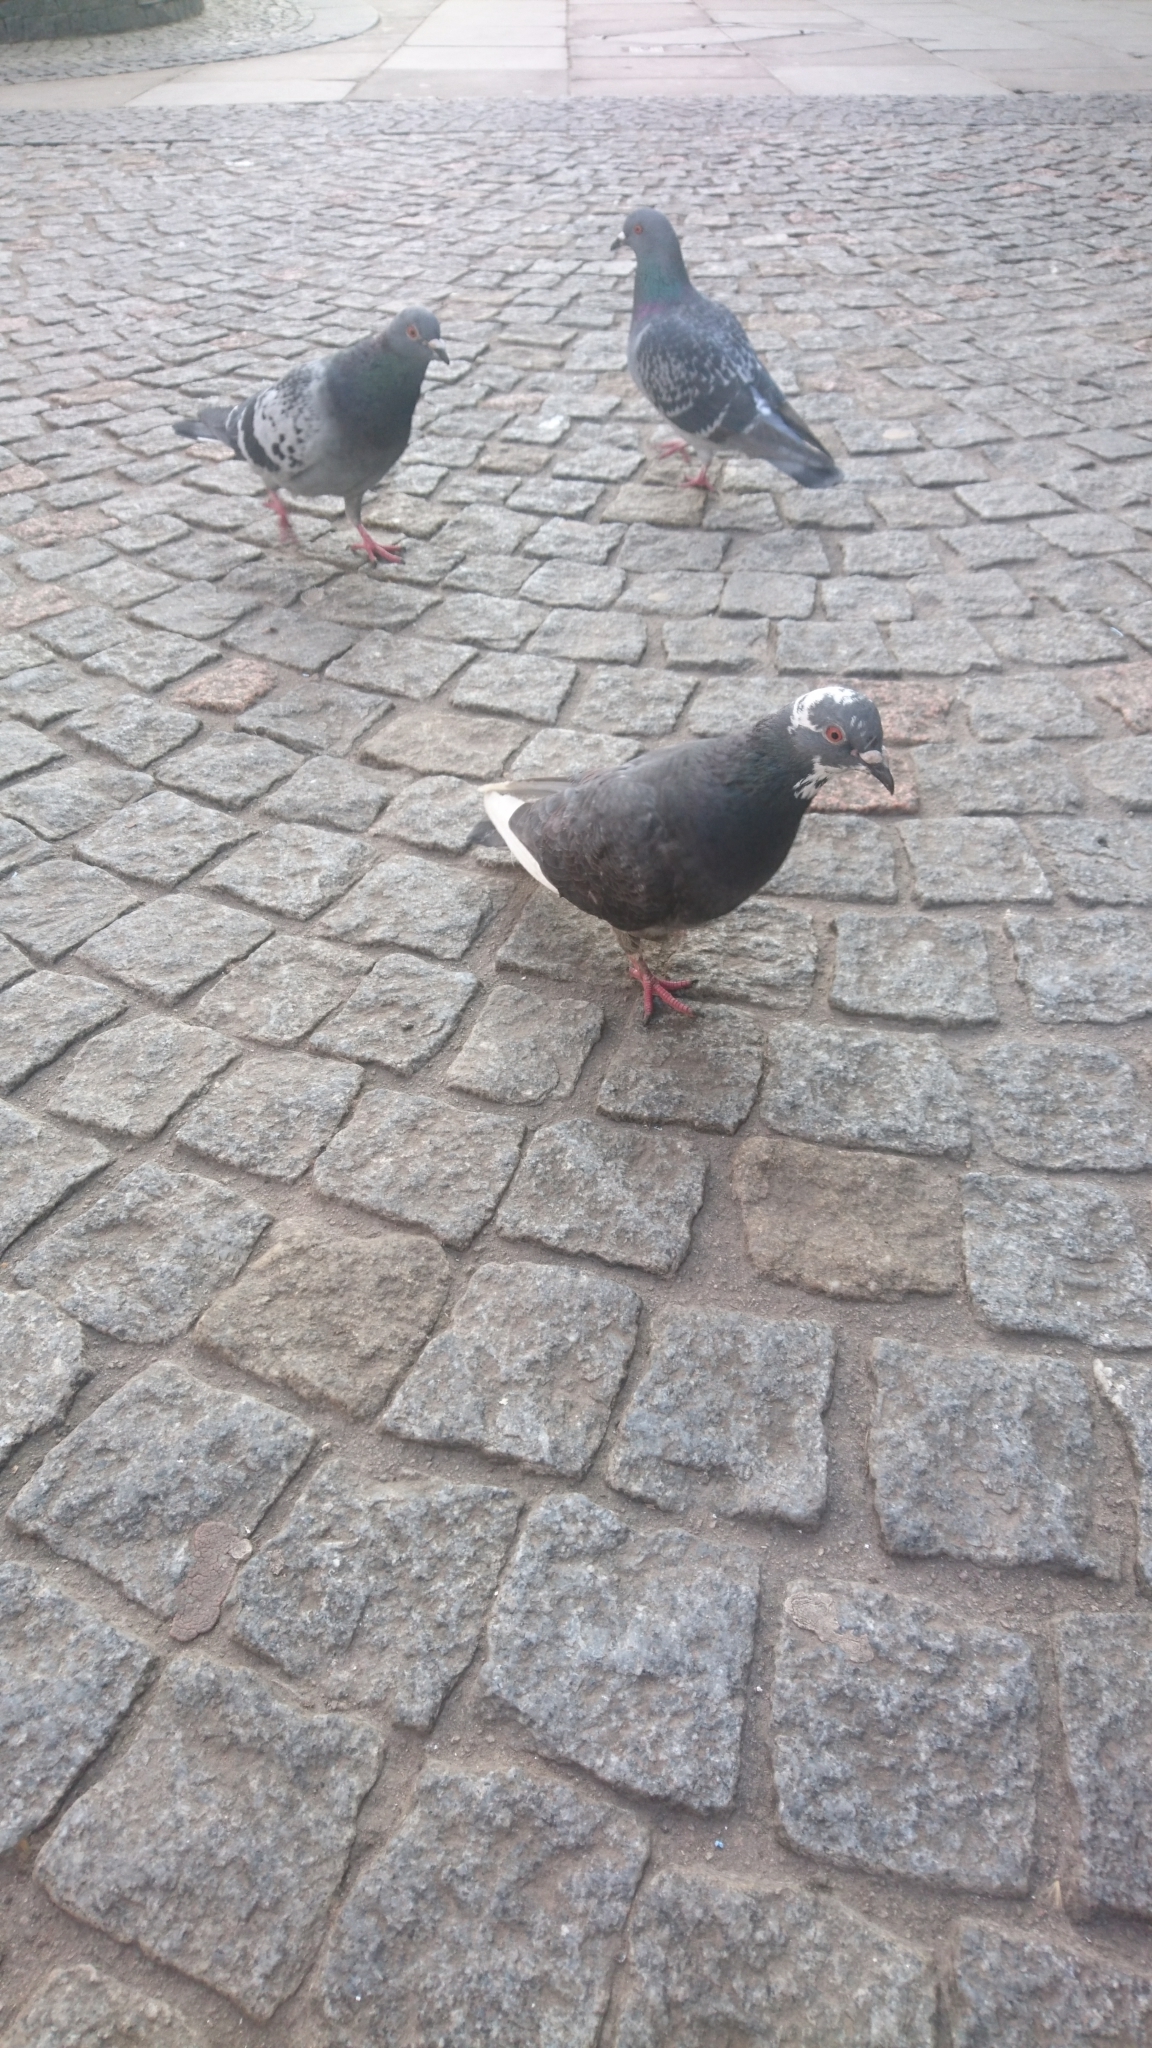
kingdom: Animalia
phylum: Chordata
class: Aves
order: Columbiformes
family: Columbidae
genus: Columba
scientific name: Columba livia
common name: Rock pigeon
